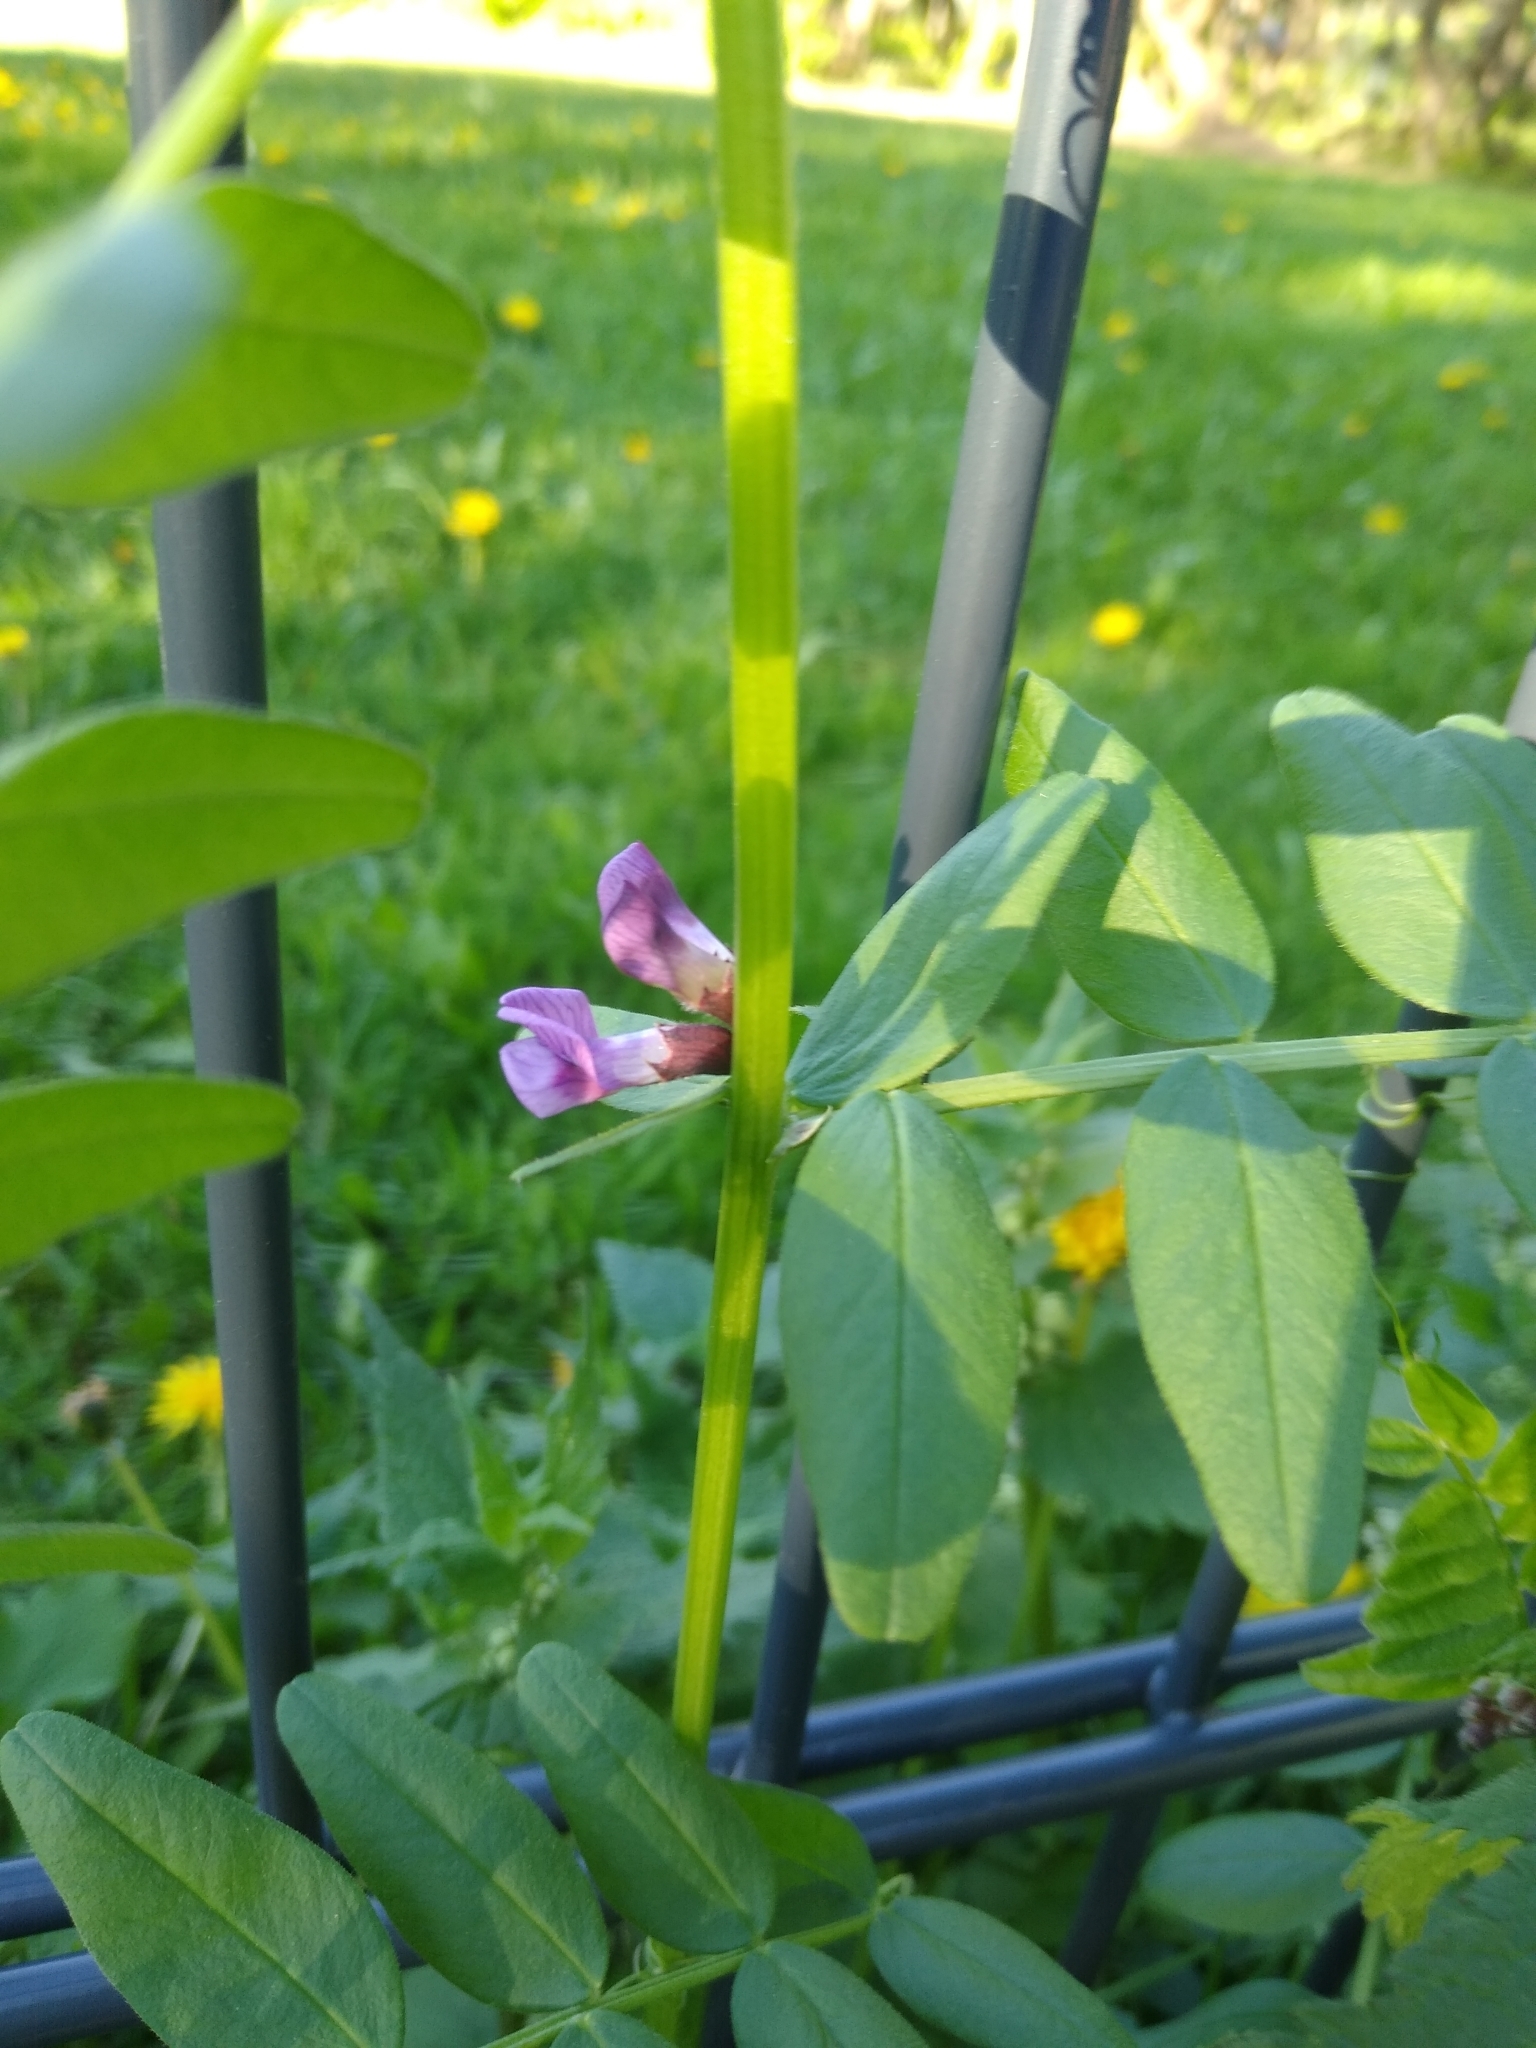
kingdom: Plantae
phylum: Tracheophyta
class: Magnoliopsida
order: Fabales
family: Fabaceae
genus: Vicia
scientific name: Vicia sepium
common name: Bush vetch
